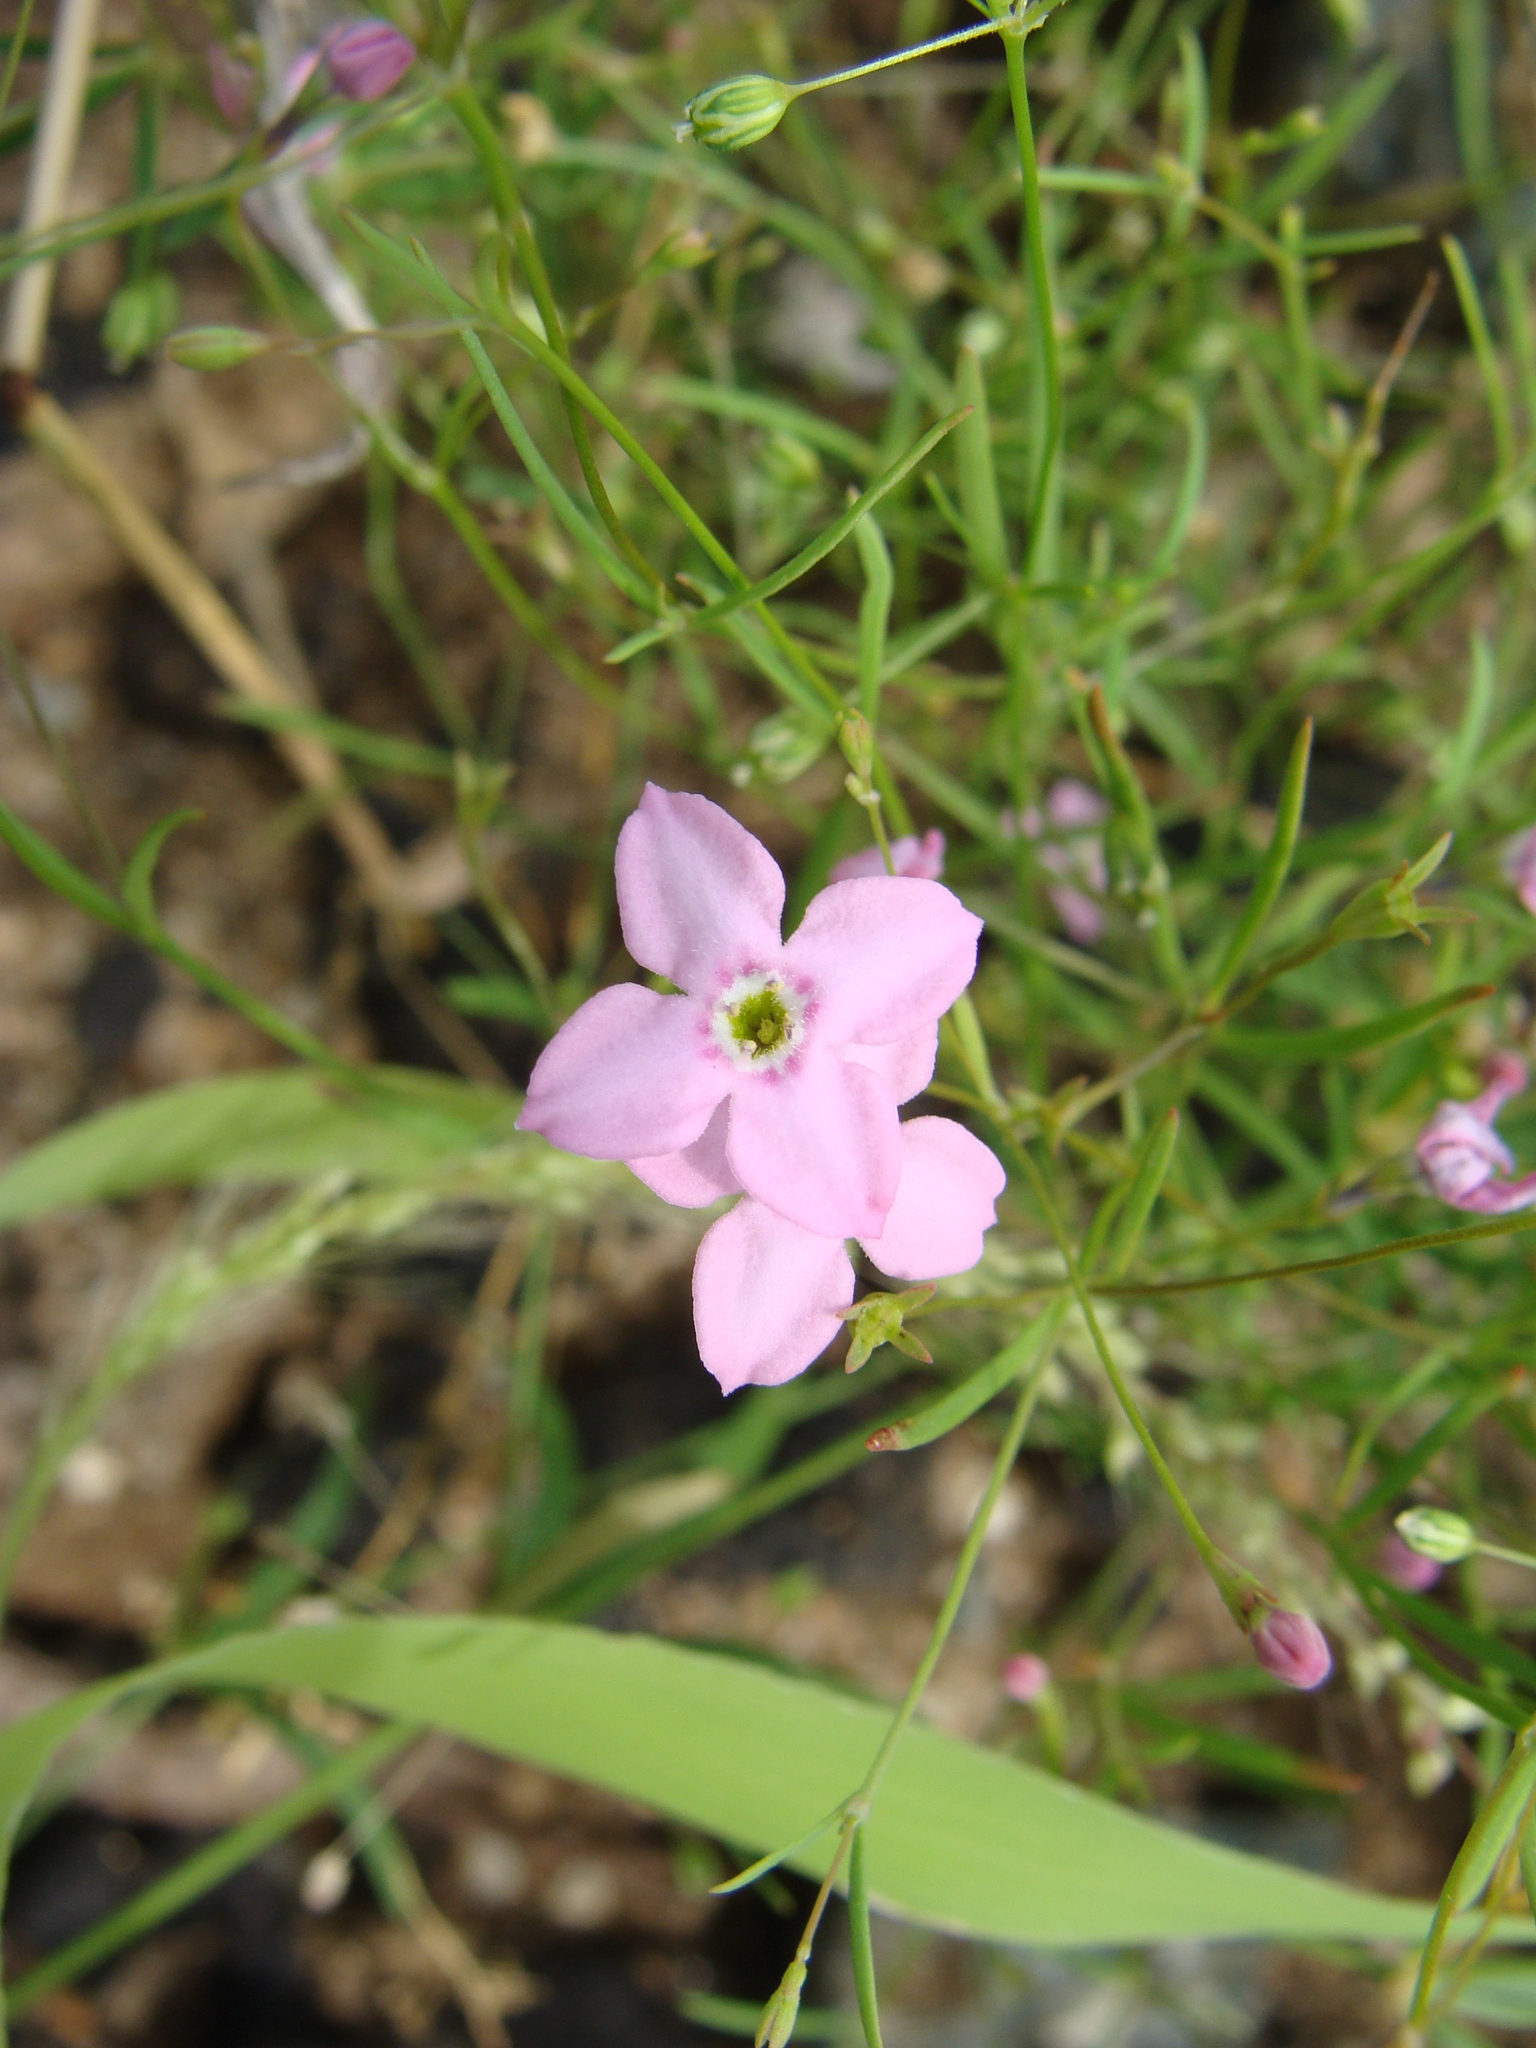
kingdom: Plantae
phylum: Tracheophyta
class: Magnoliopsida
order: Gentianales
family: Rubiaceae
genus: Stenotis
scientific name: Stenotis asperuloides
